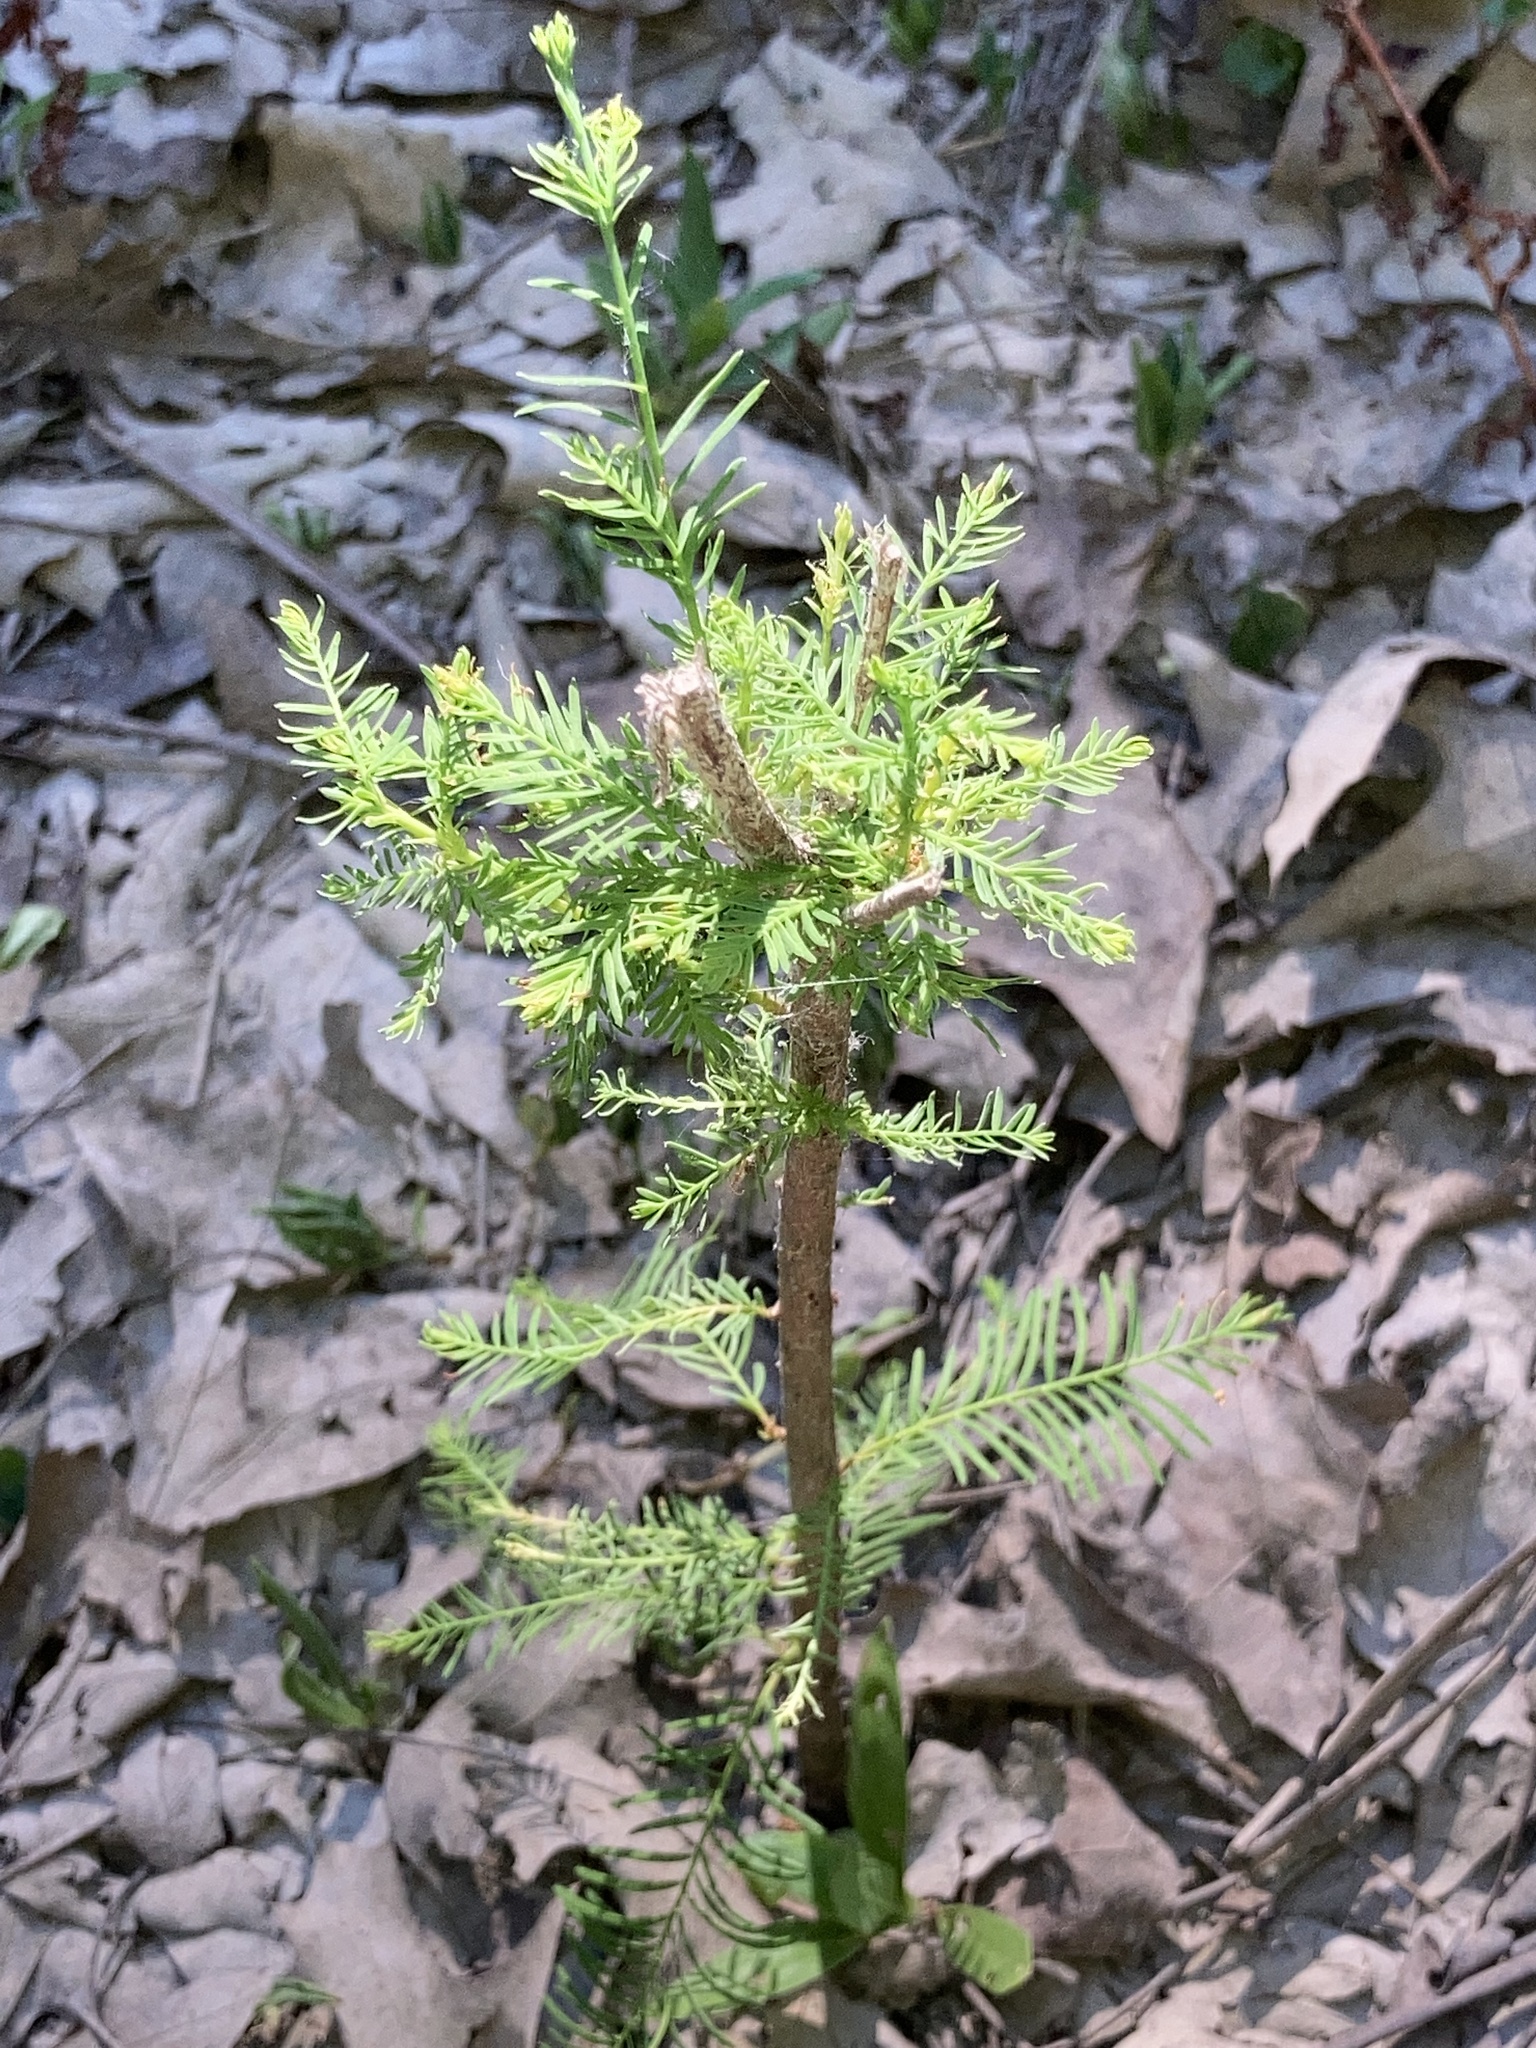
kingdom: Plantae
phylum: Tracheophyta
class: Pinopsida
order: Pinales
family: Cupressaceae
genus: Taxodium
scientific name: Taxodium distichum
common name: Bald cypress
